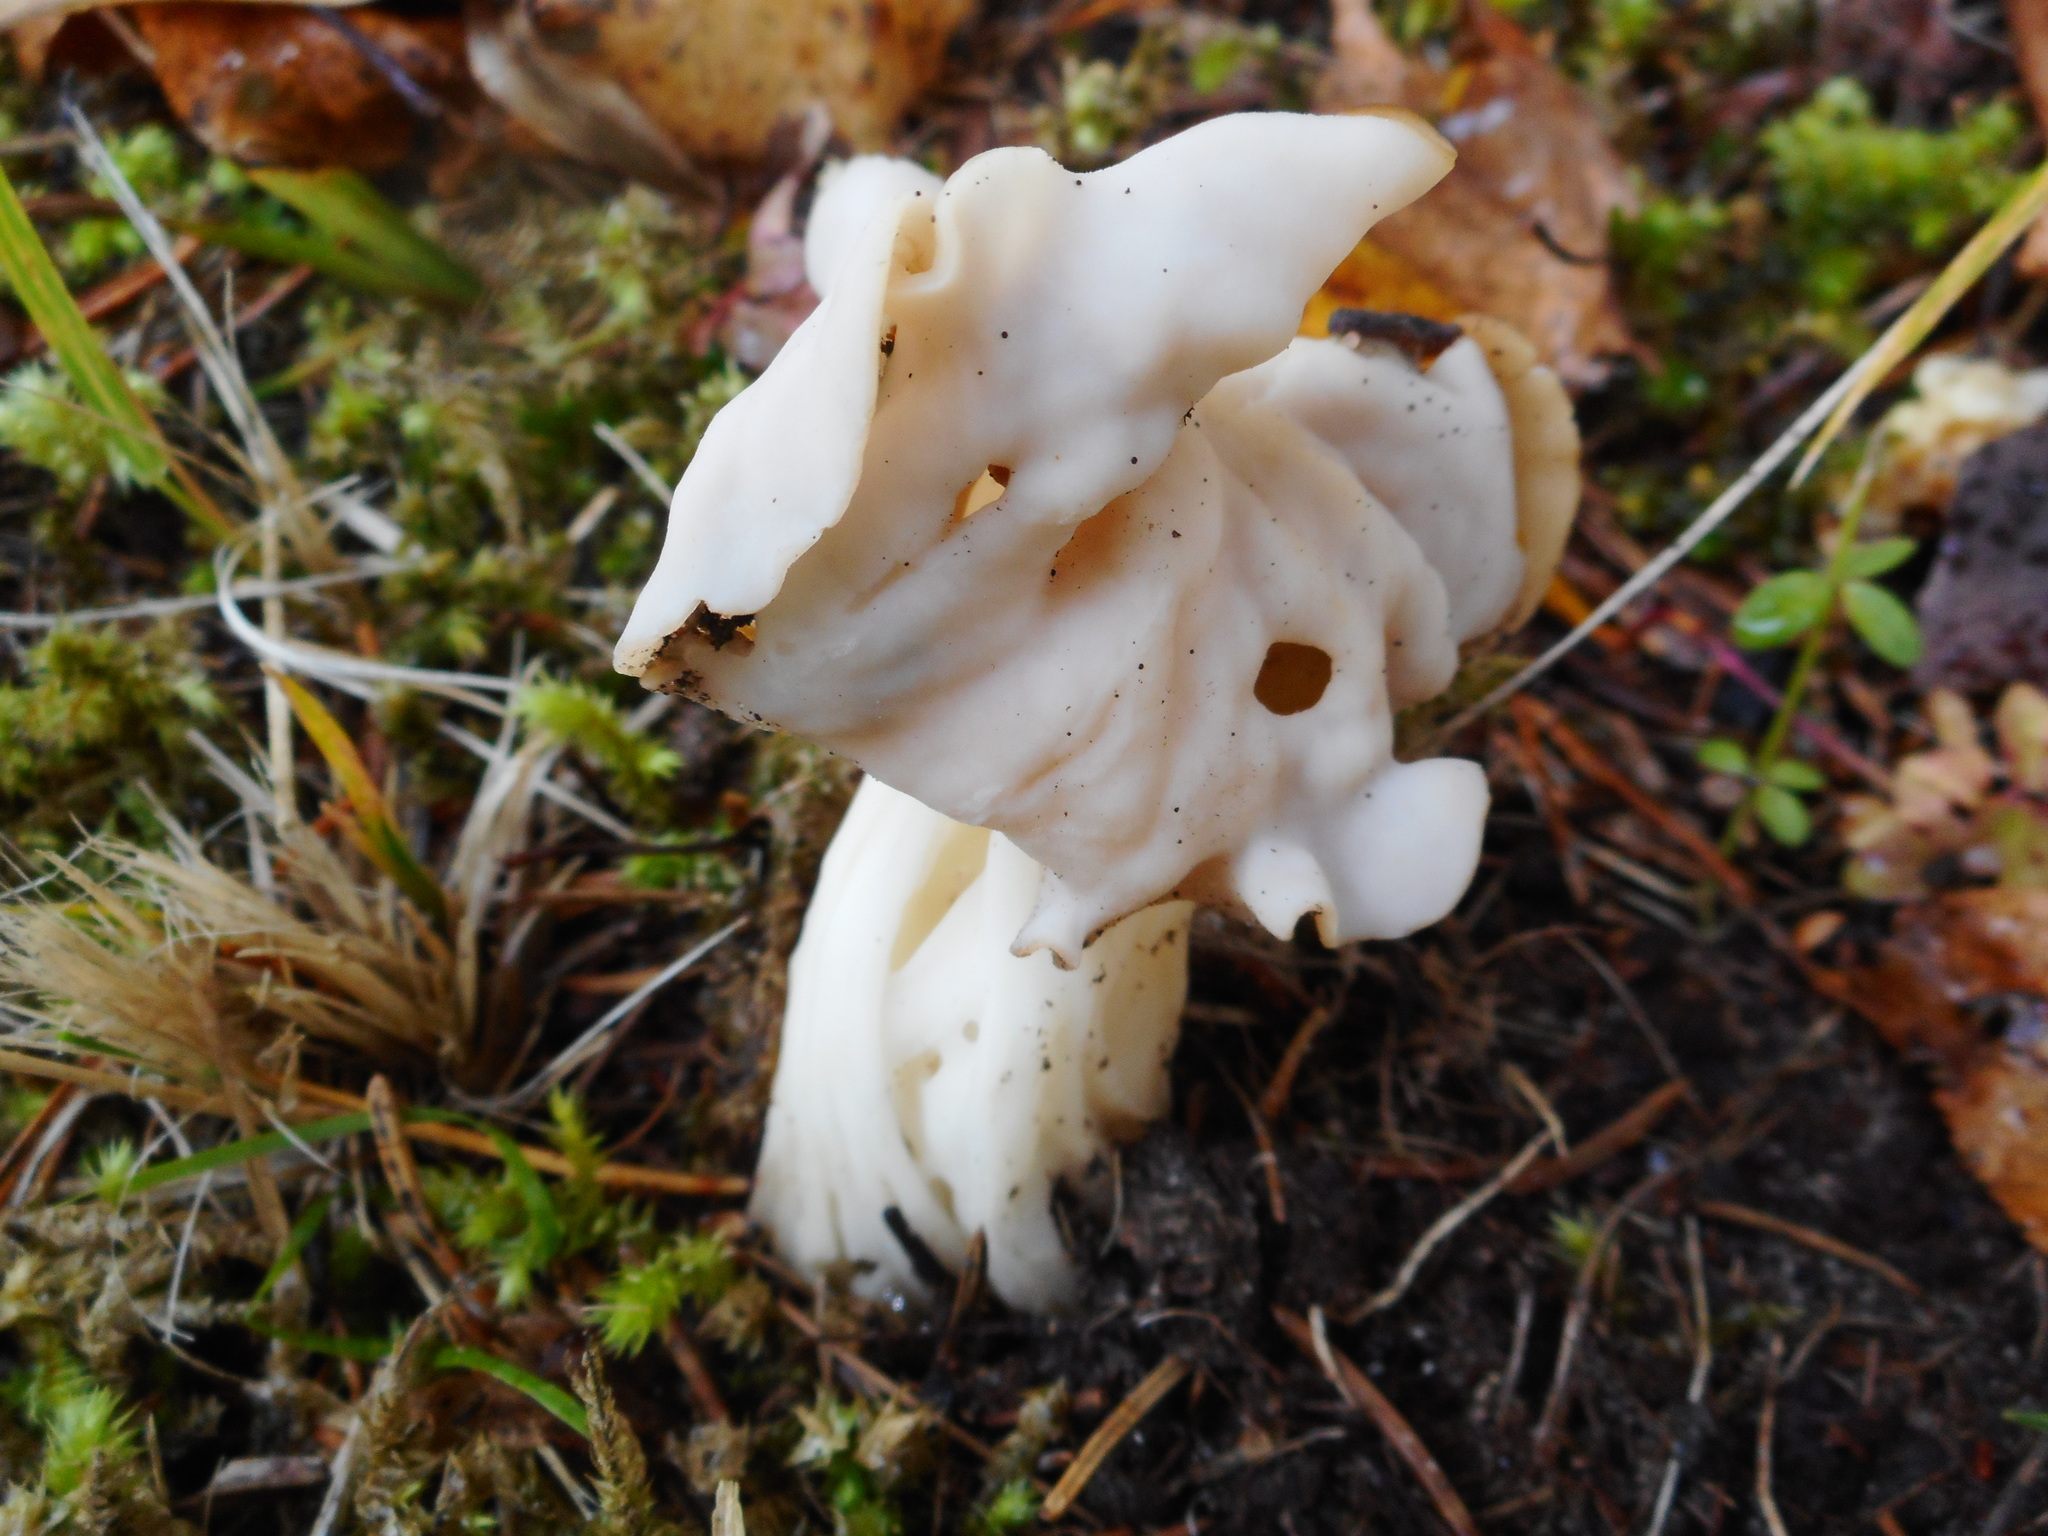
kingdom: Fungi
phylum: Ascomycota
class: Pezizomycetes
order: Pezizales
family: Helvellaceae
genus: Helvella
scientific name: Helvella crispa
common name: White saddle
